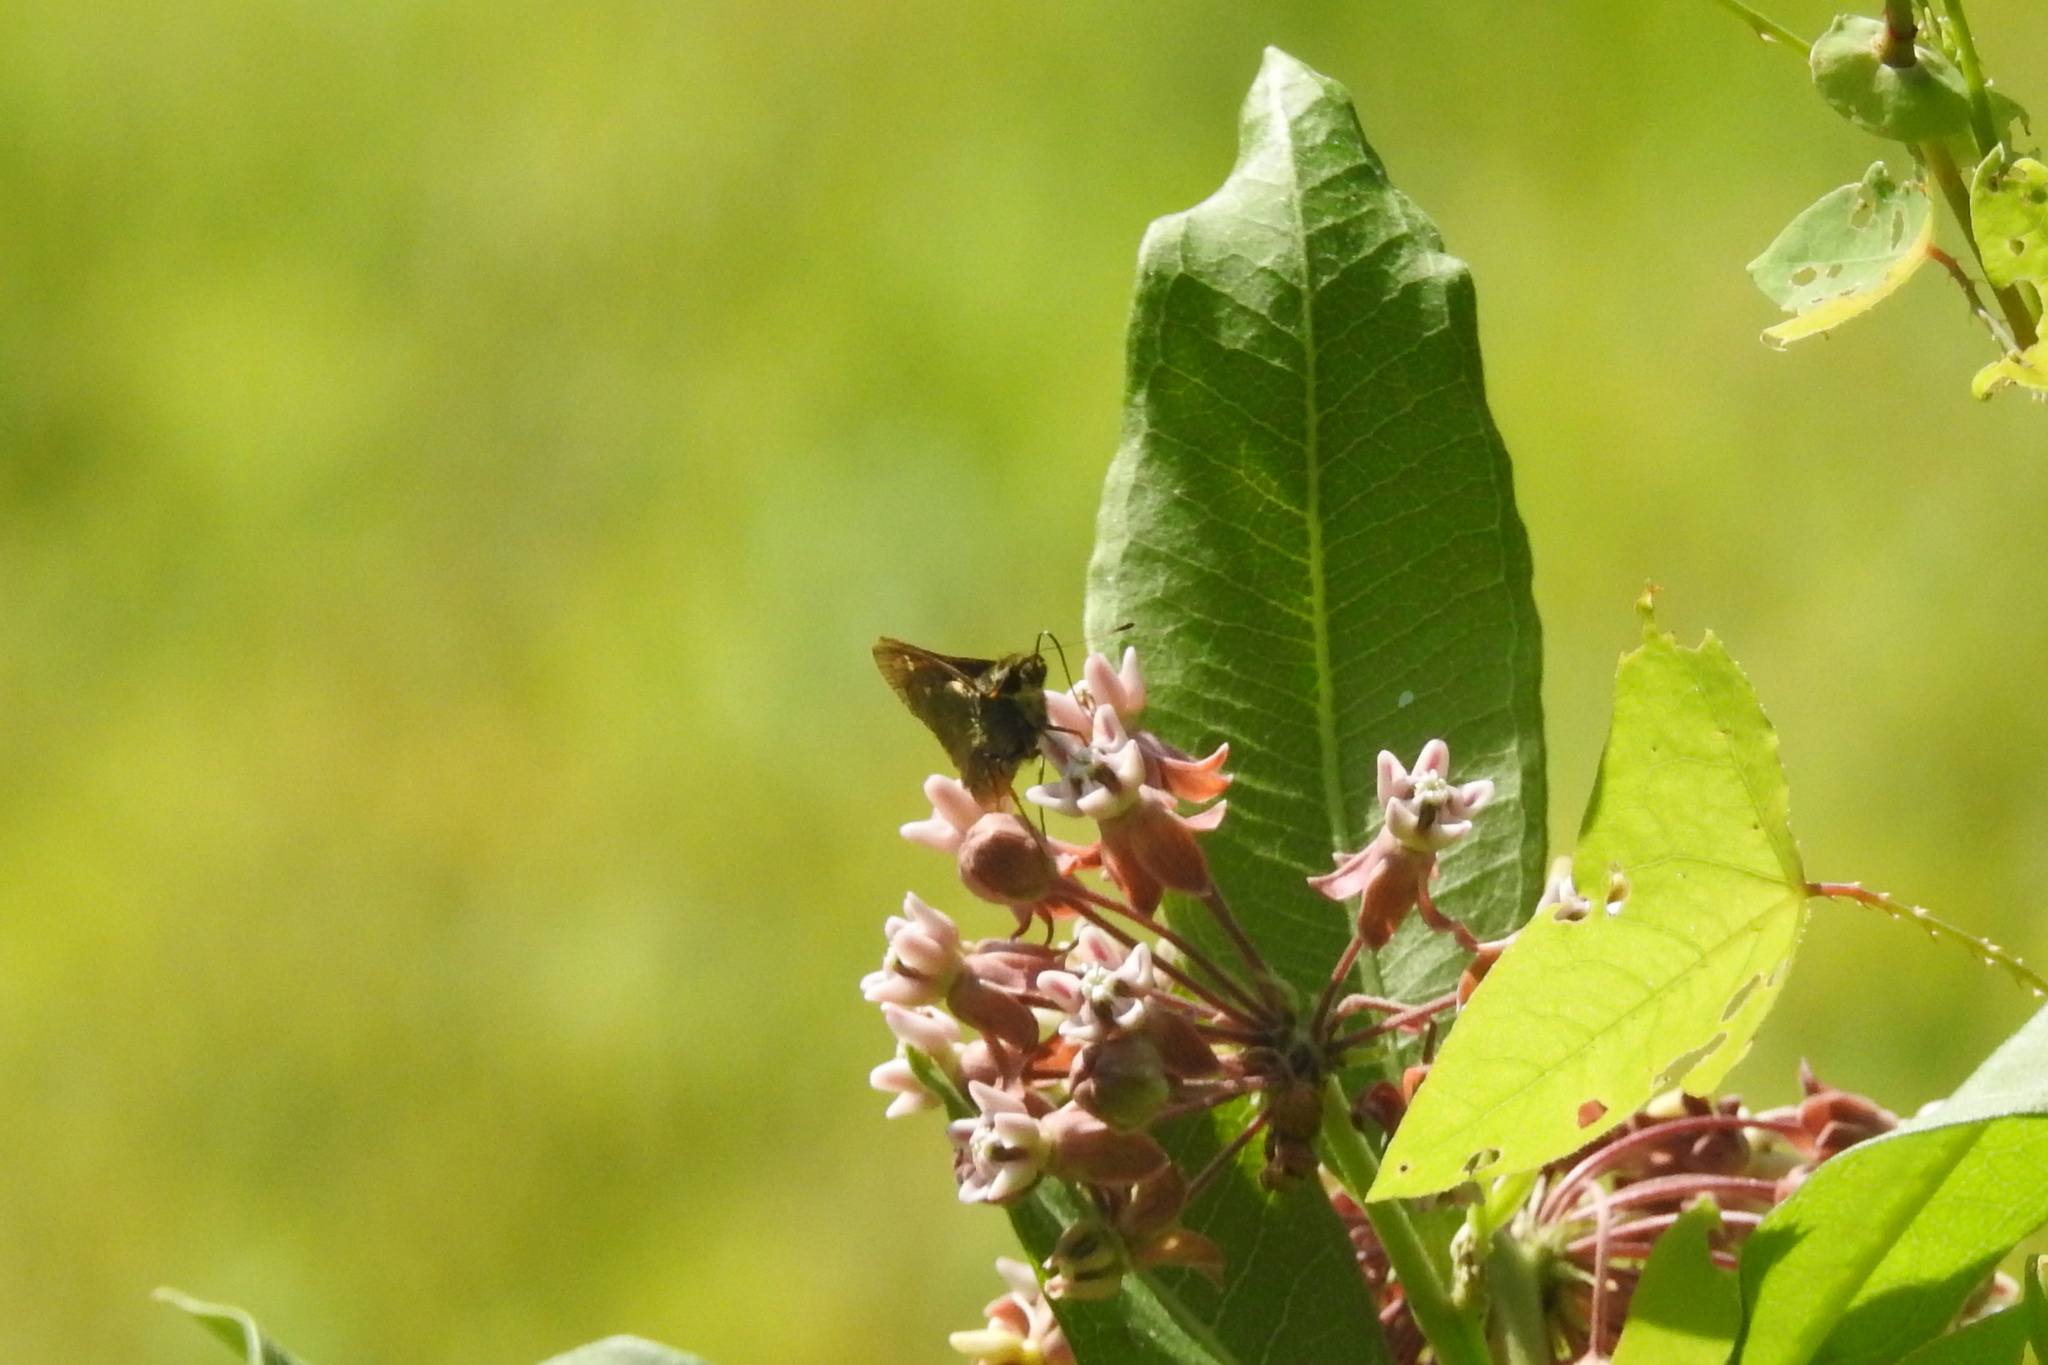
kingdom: Plantae
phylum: Tracheophyta
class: Magnoliopsida
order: Gentianales
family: Apocynaceae
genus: Asclepias
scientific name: Asclepias syriaca
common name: Common milkweed
